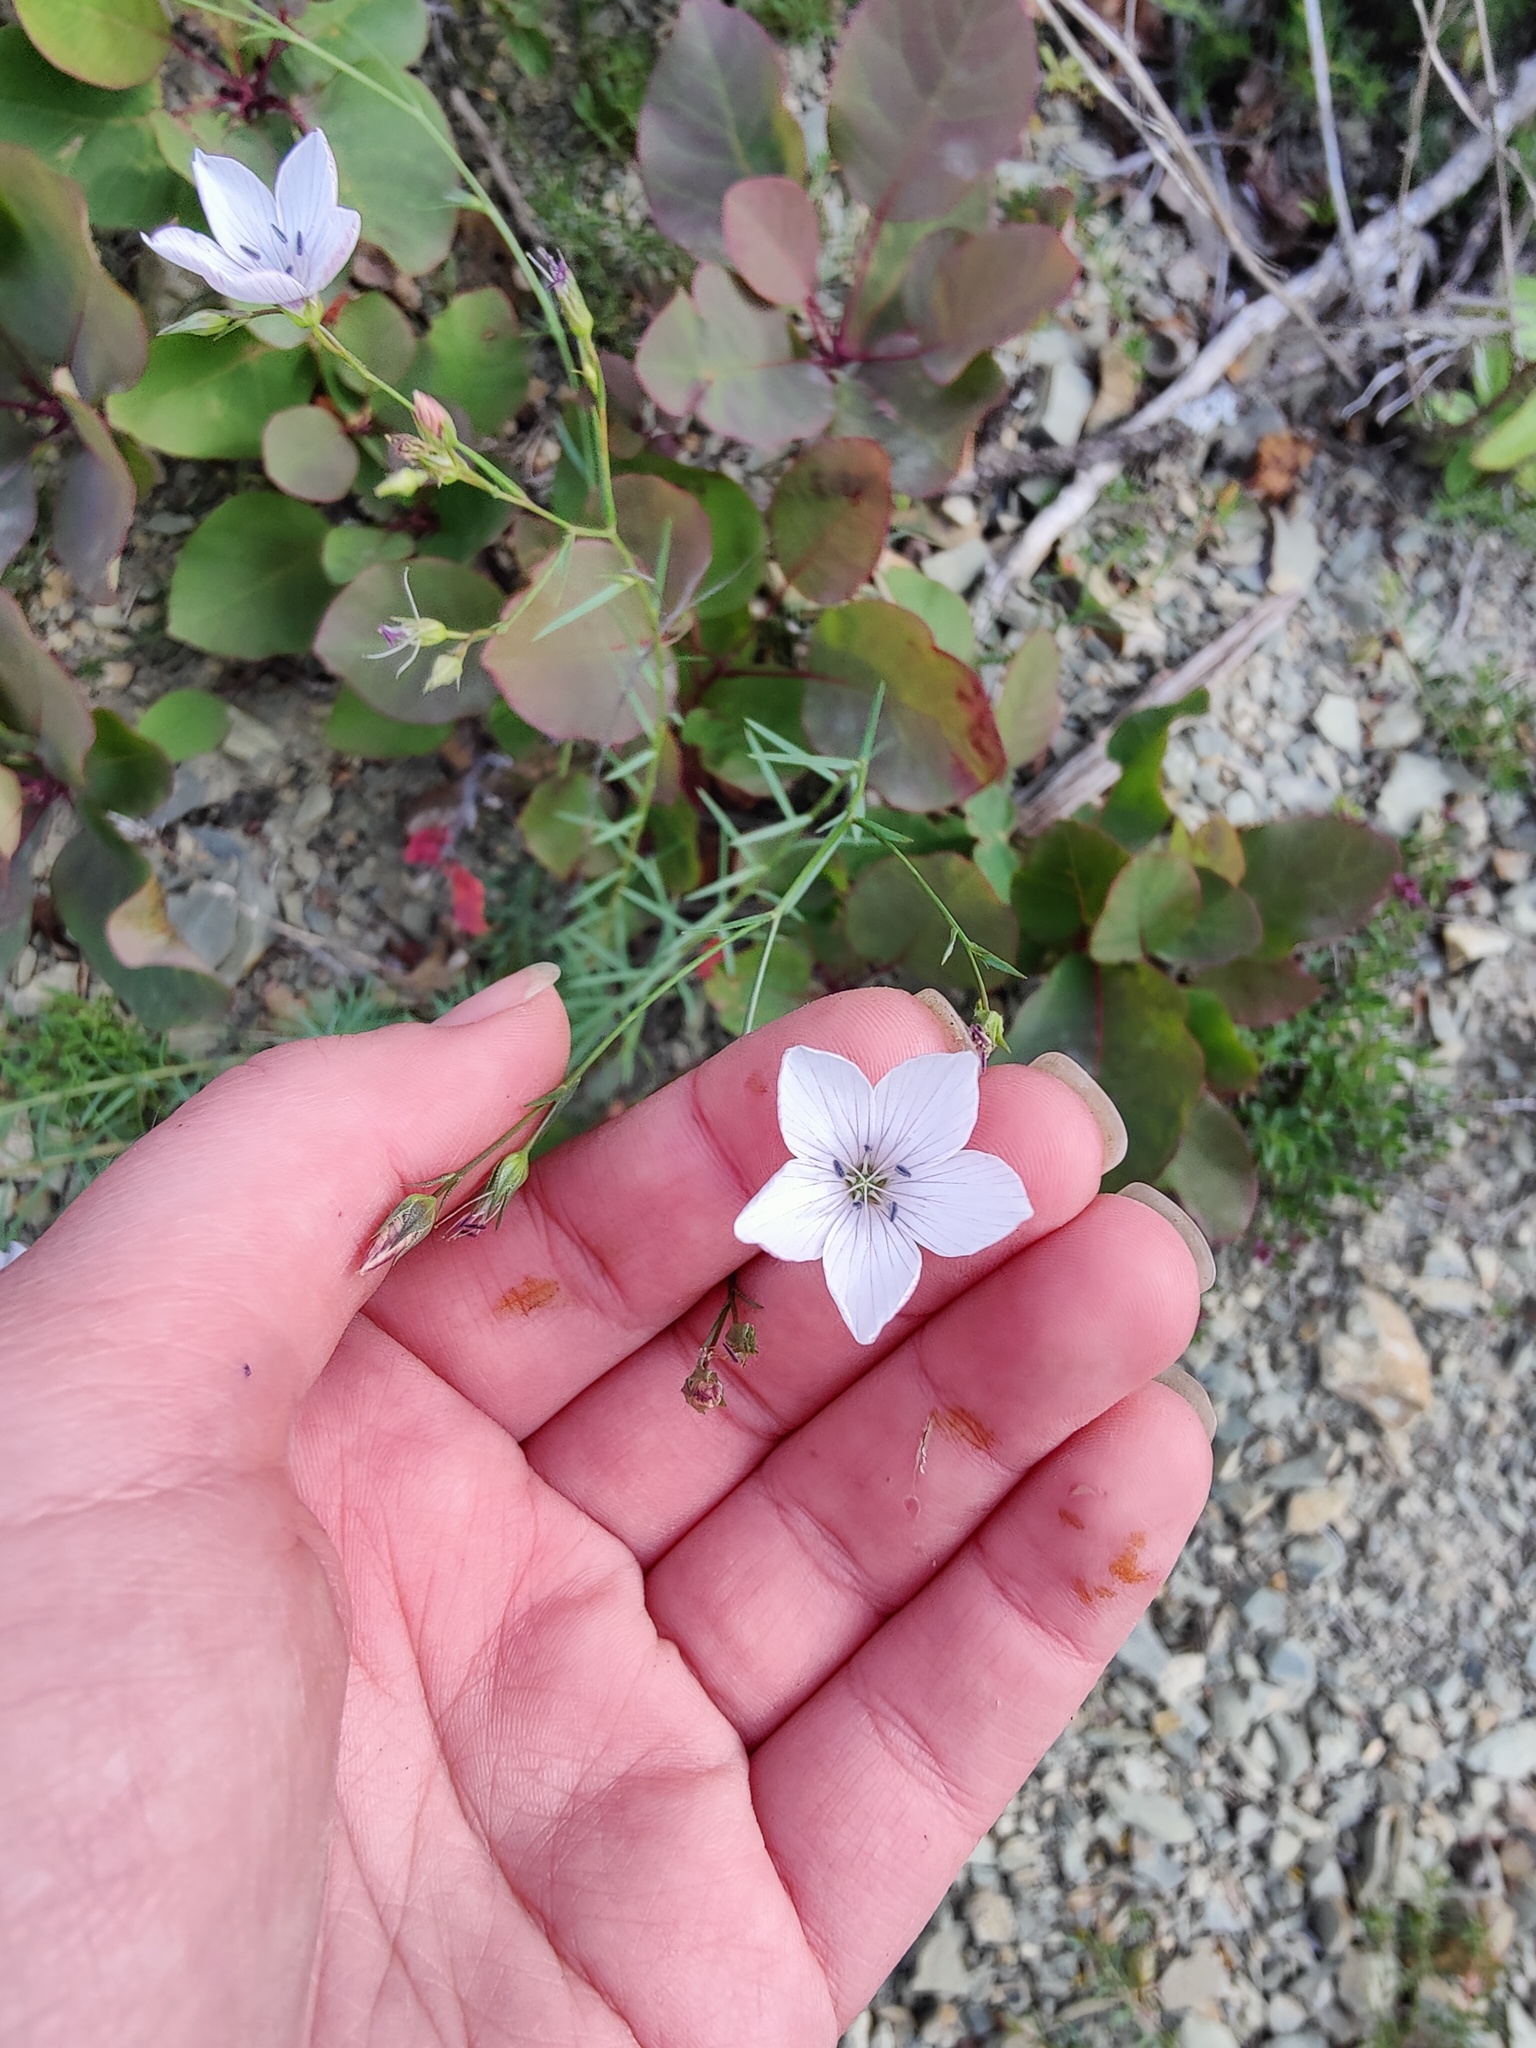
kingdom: Plantae
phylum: Tracheophyta
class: Magnoliopsida
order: Malpighiales
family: Linaceae
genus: Linum
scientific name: Linum tenuifolium
